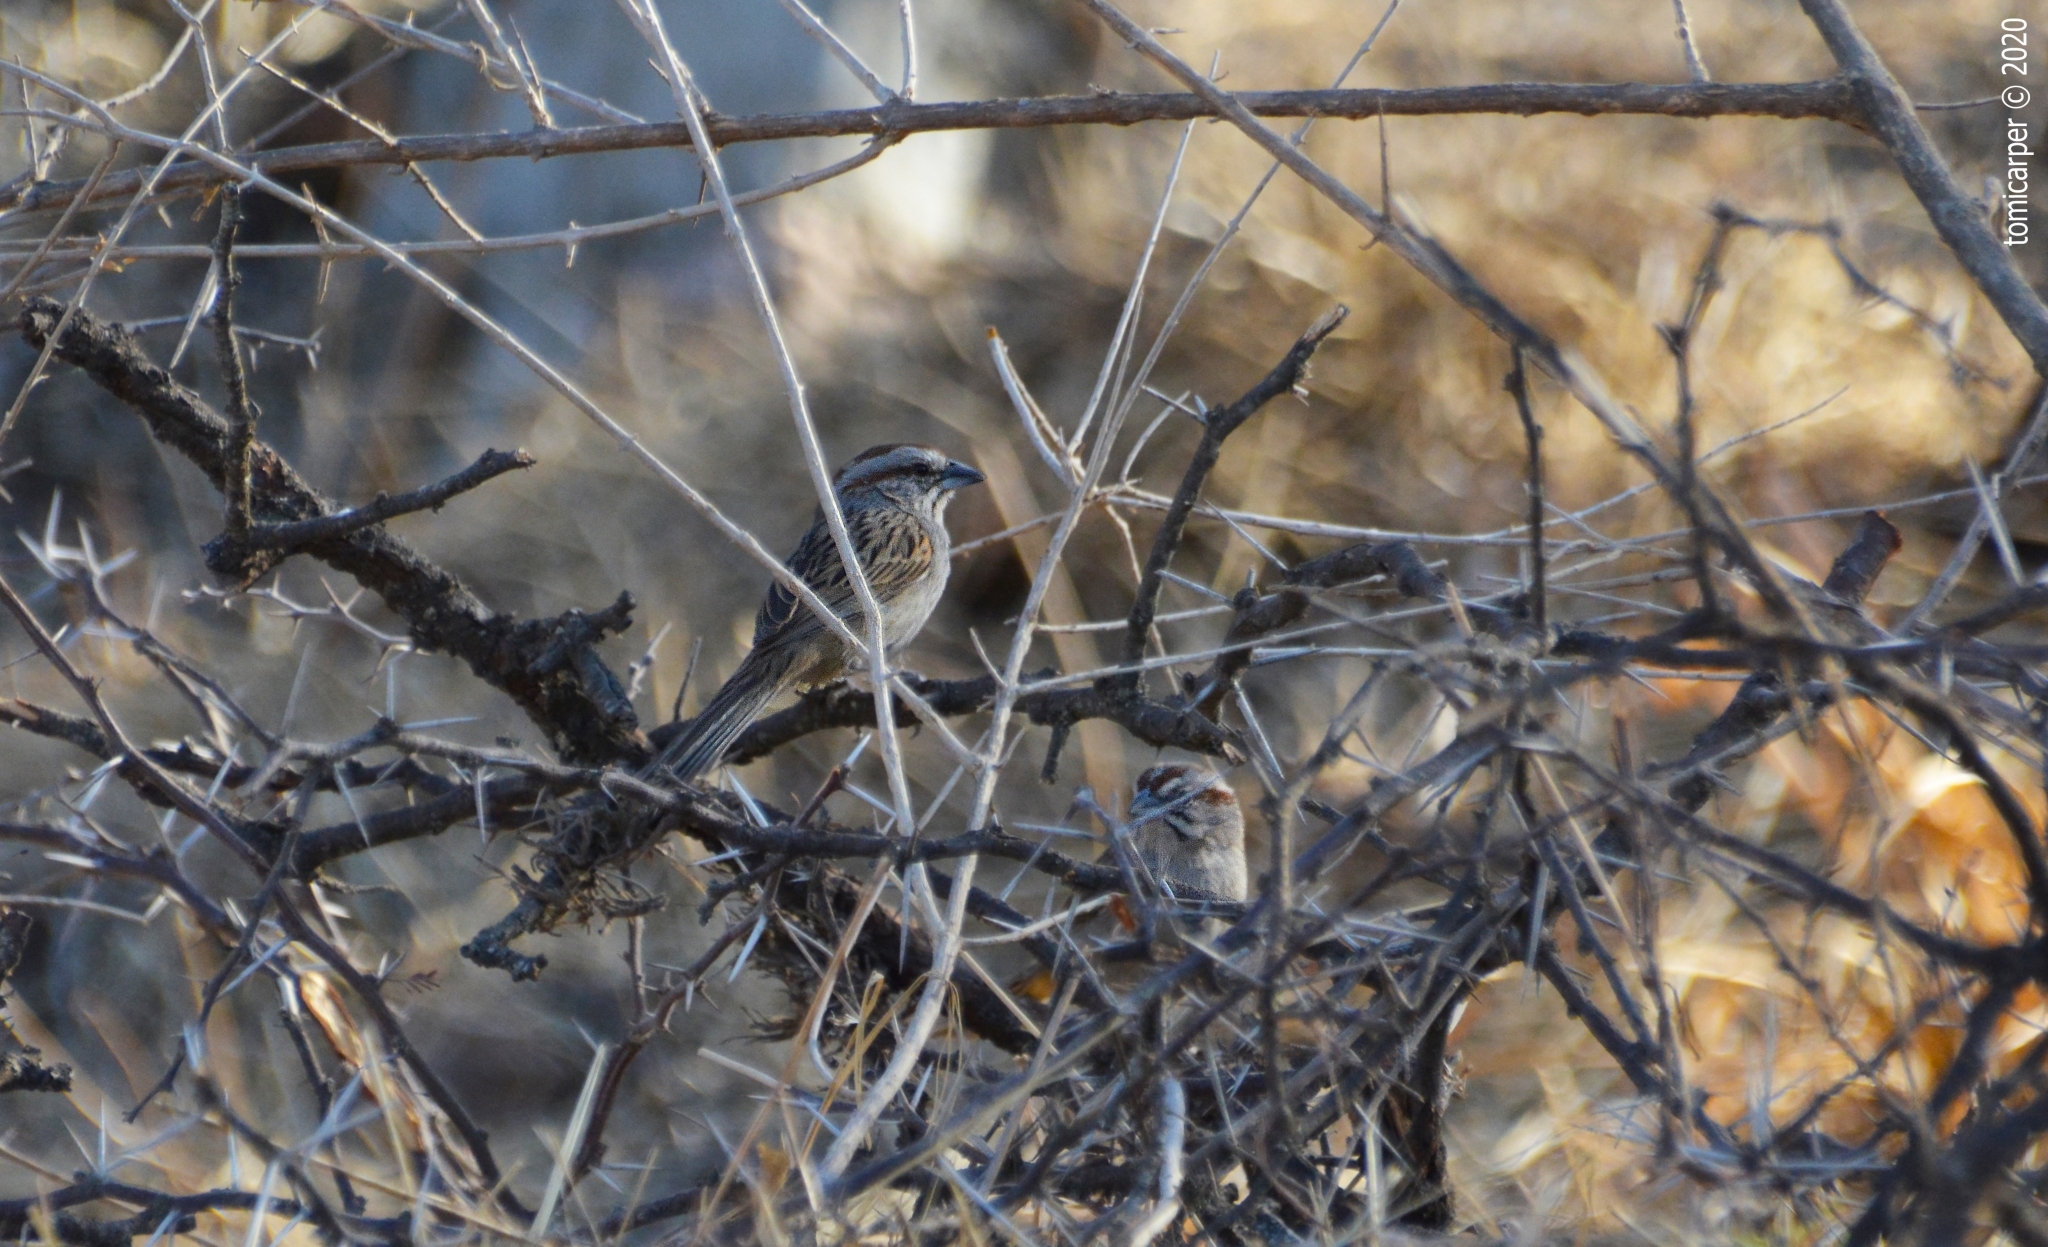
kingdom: Animalia
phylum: Chordata
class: Aves
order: Passeriformes
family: Passerellidae
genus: Rhynchospiza
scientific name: Rhynchospiza strigiceps
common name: Stripe-capped sparrow
